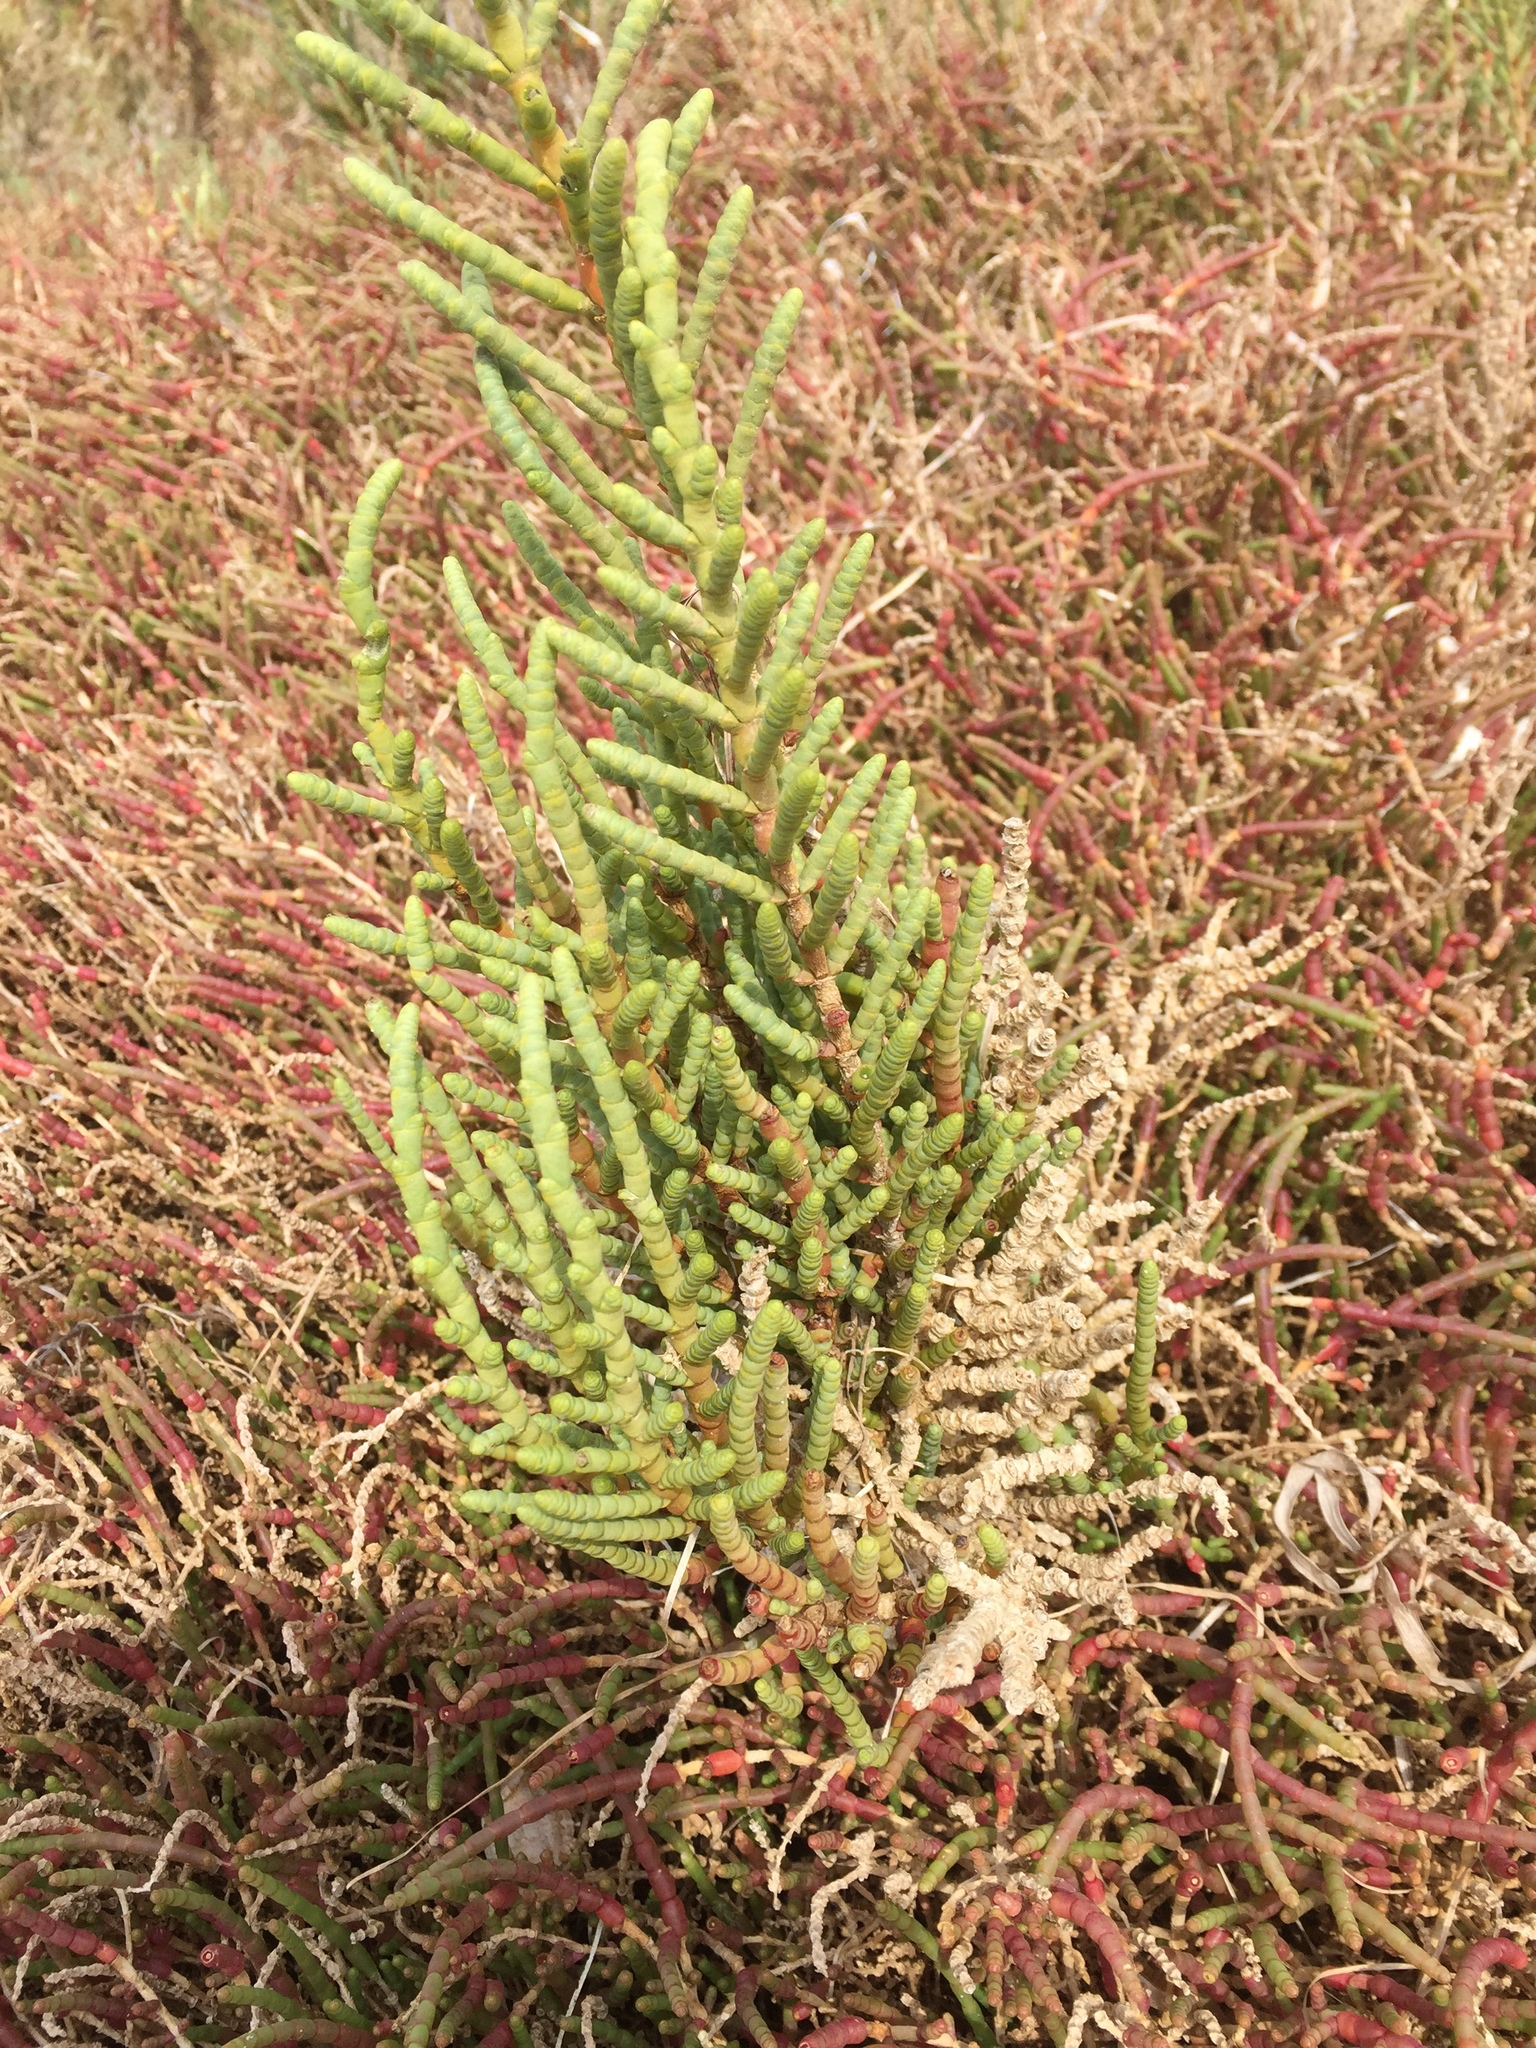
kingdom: Plantae
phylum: Tracheophyta
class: Magnoliopsida
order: Caryophyllales
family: Amaranthaceae
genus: Salicornia
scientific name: Salicornia fruticosa
